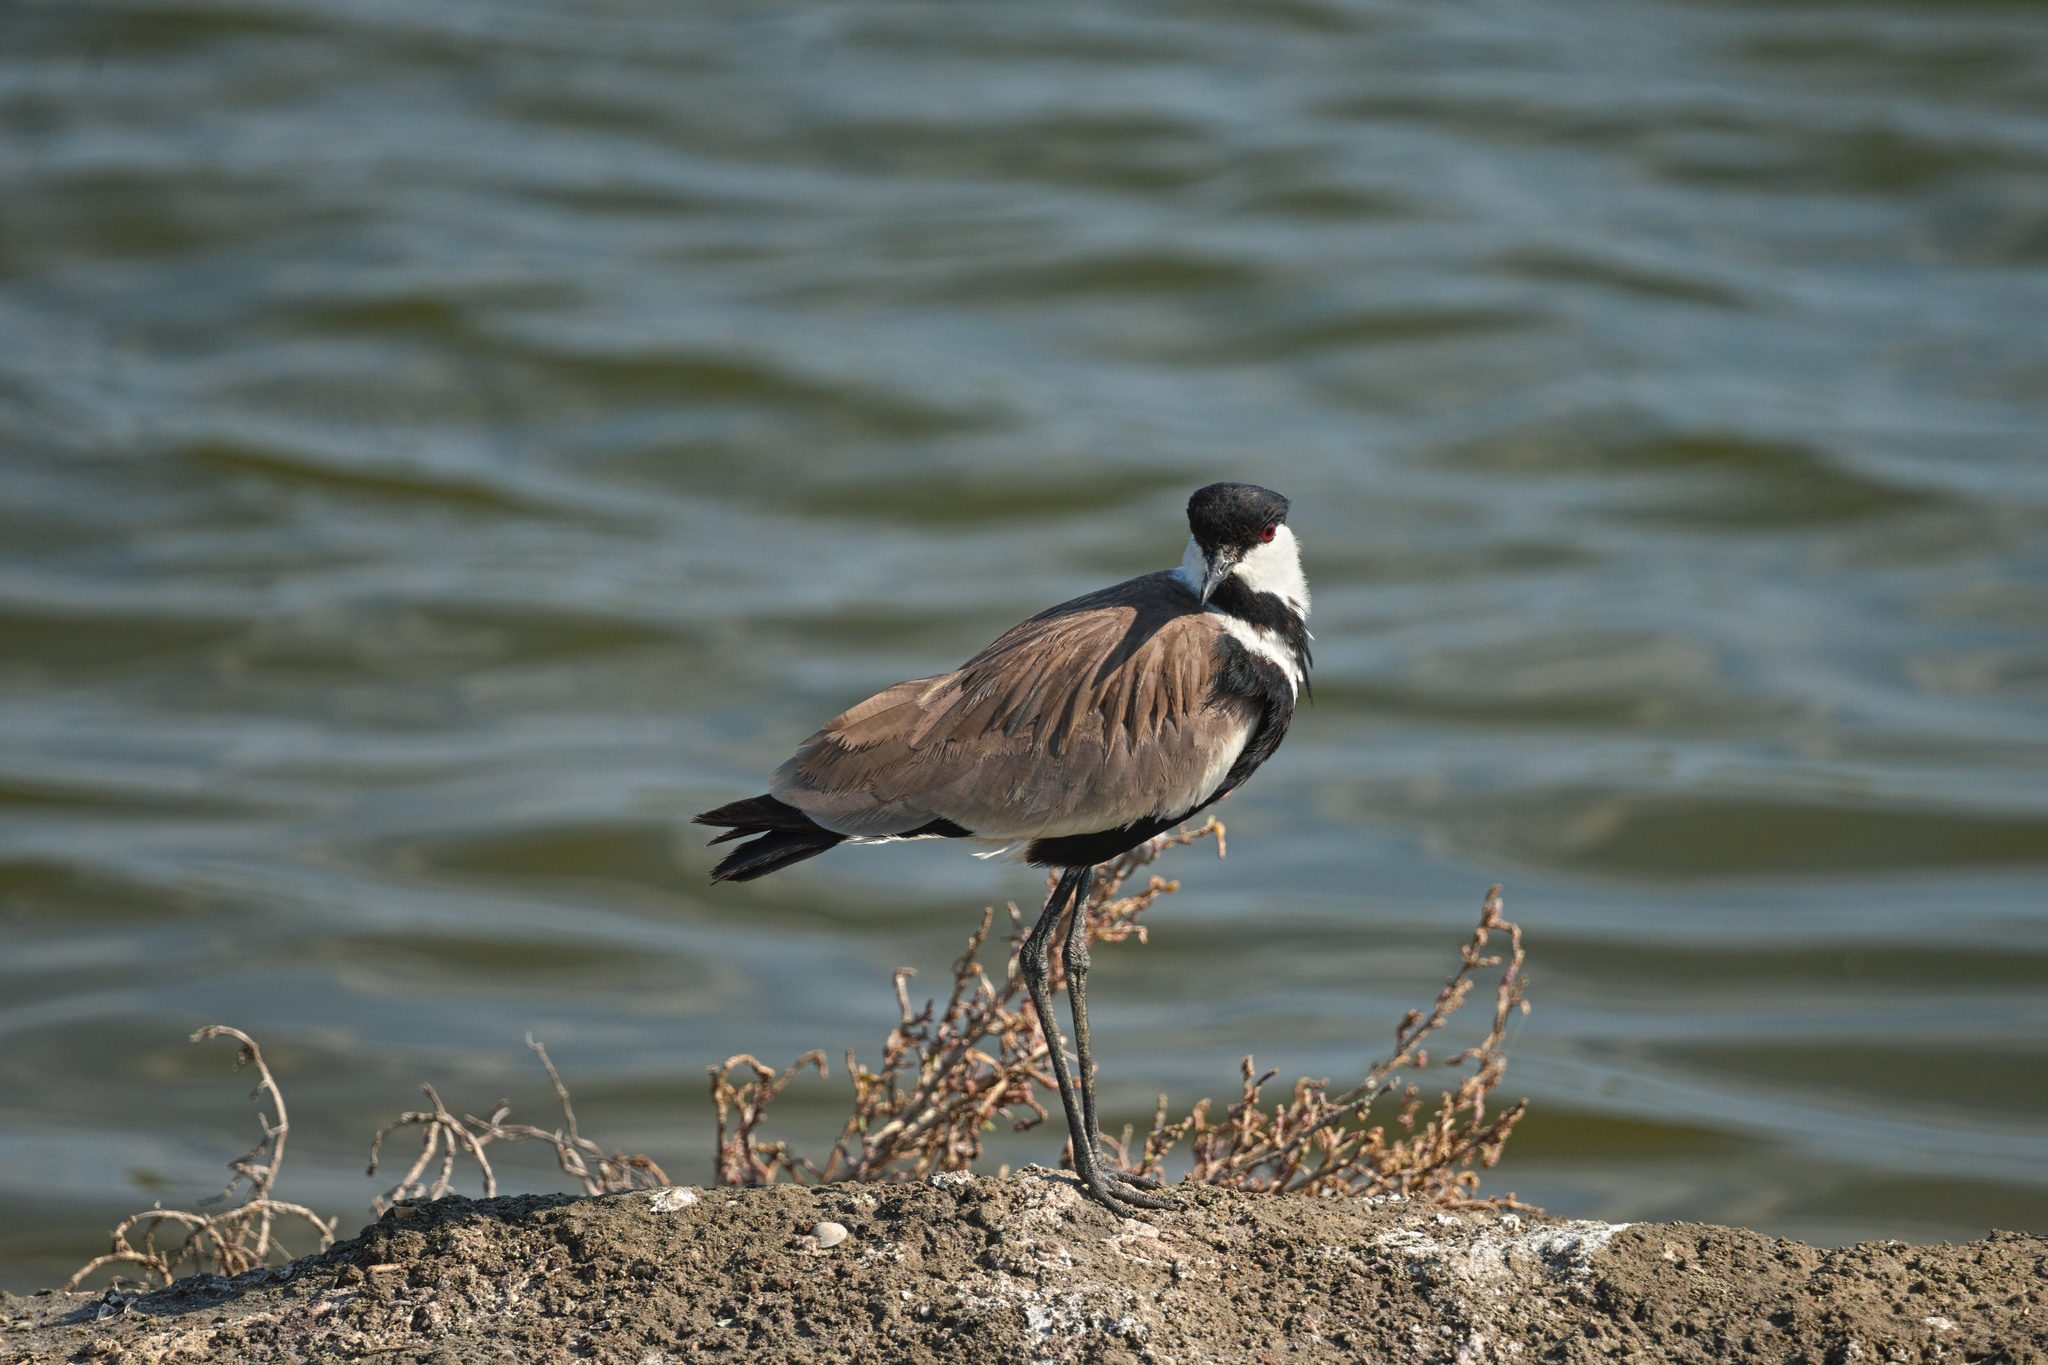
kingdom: Animalia
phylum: Chordata
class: Aves
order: Charadriiformes
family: Charadriidae
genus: Vanellus
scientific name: Vanellus spinosus
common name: Spur-winged lapwing
